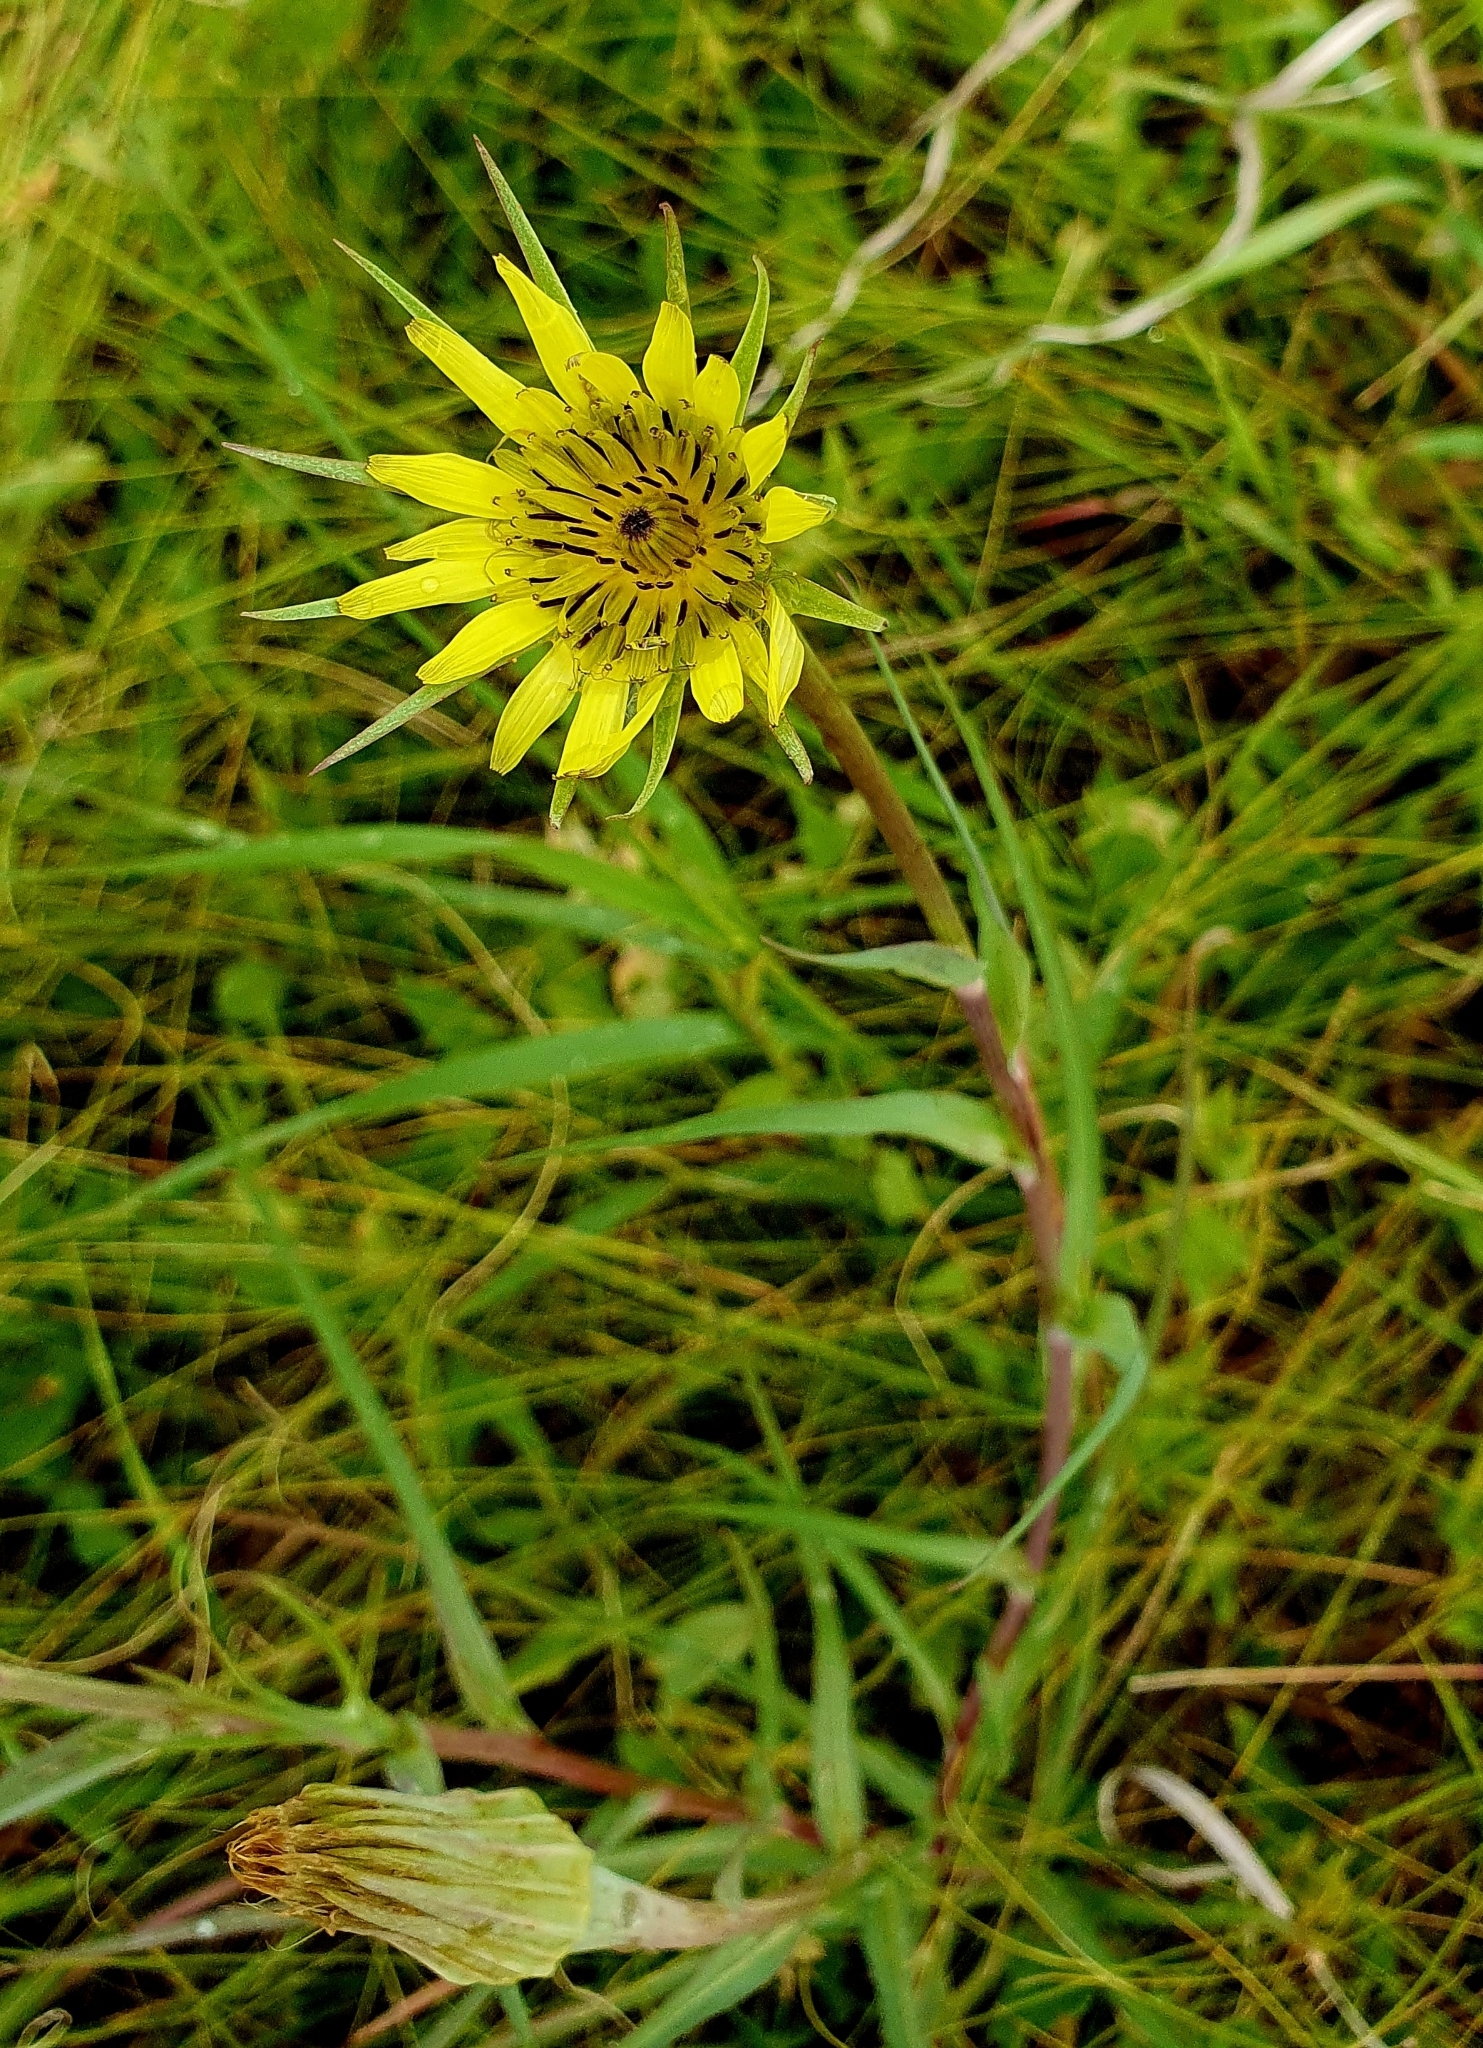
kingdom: Plantae
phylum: Tracheophyta
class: Magnoliopsida
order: Asterales
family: Asteraceae
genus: Tragopogon
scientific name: Tragopogon dubius
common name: Yellow salsify
